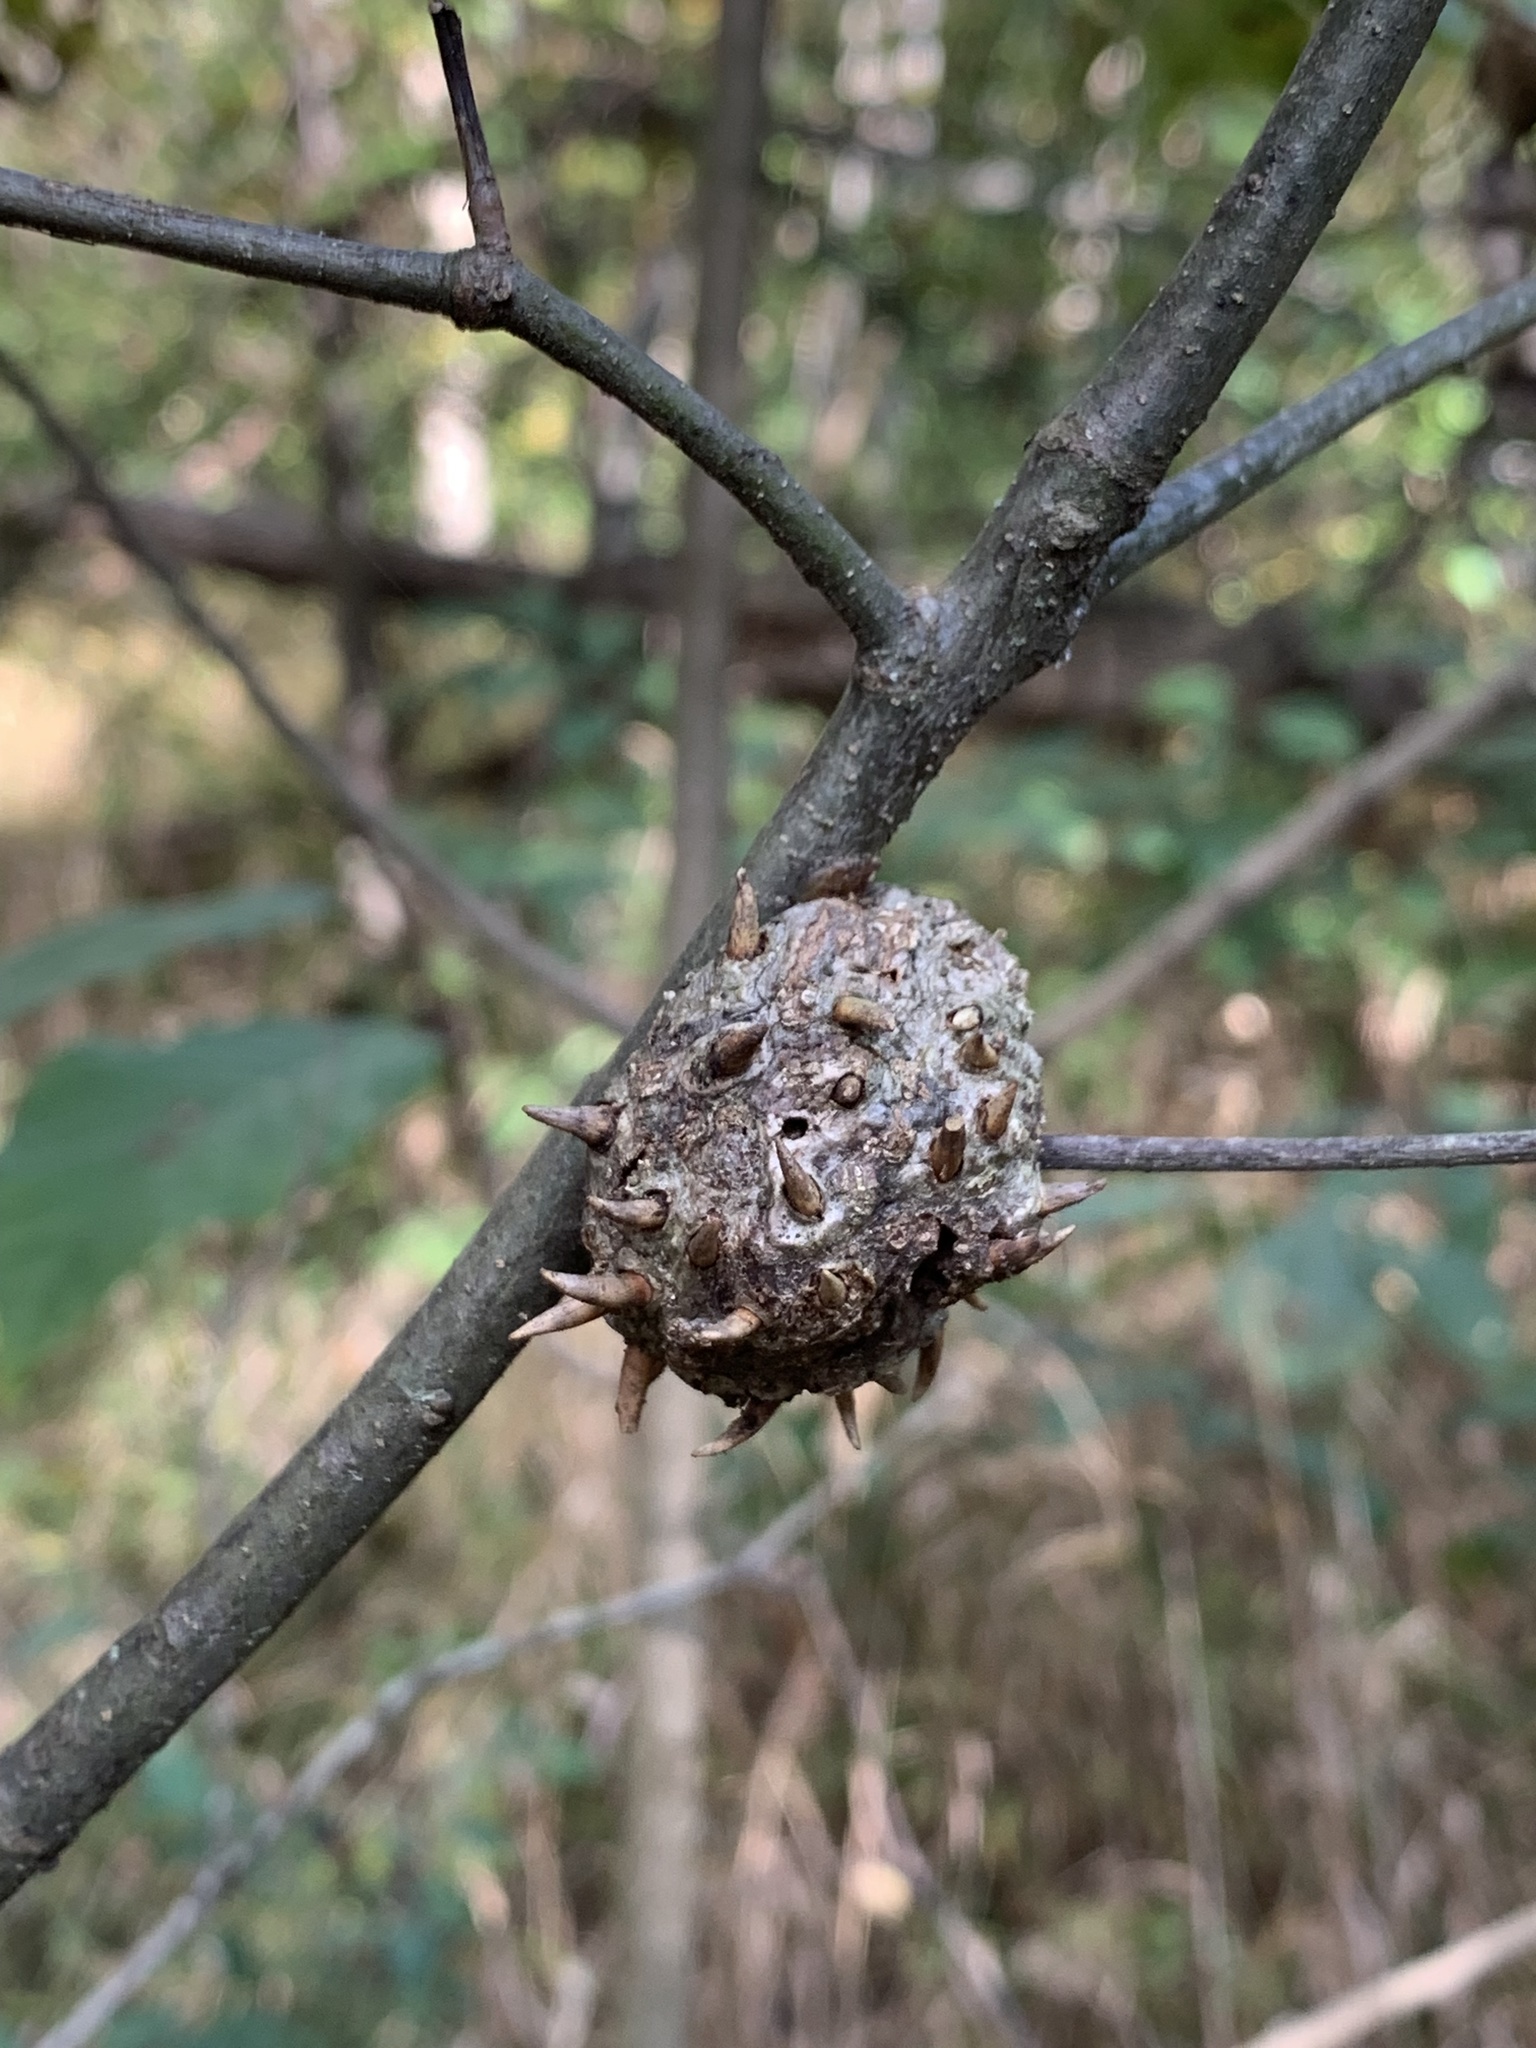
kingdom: Animalia
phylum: Arthropoda
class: Insecta
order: Hymenoptera
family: Cynipidae
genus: Callirhytis
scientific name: Callirhytis
